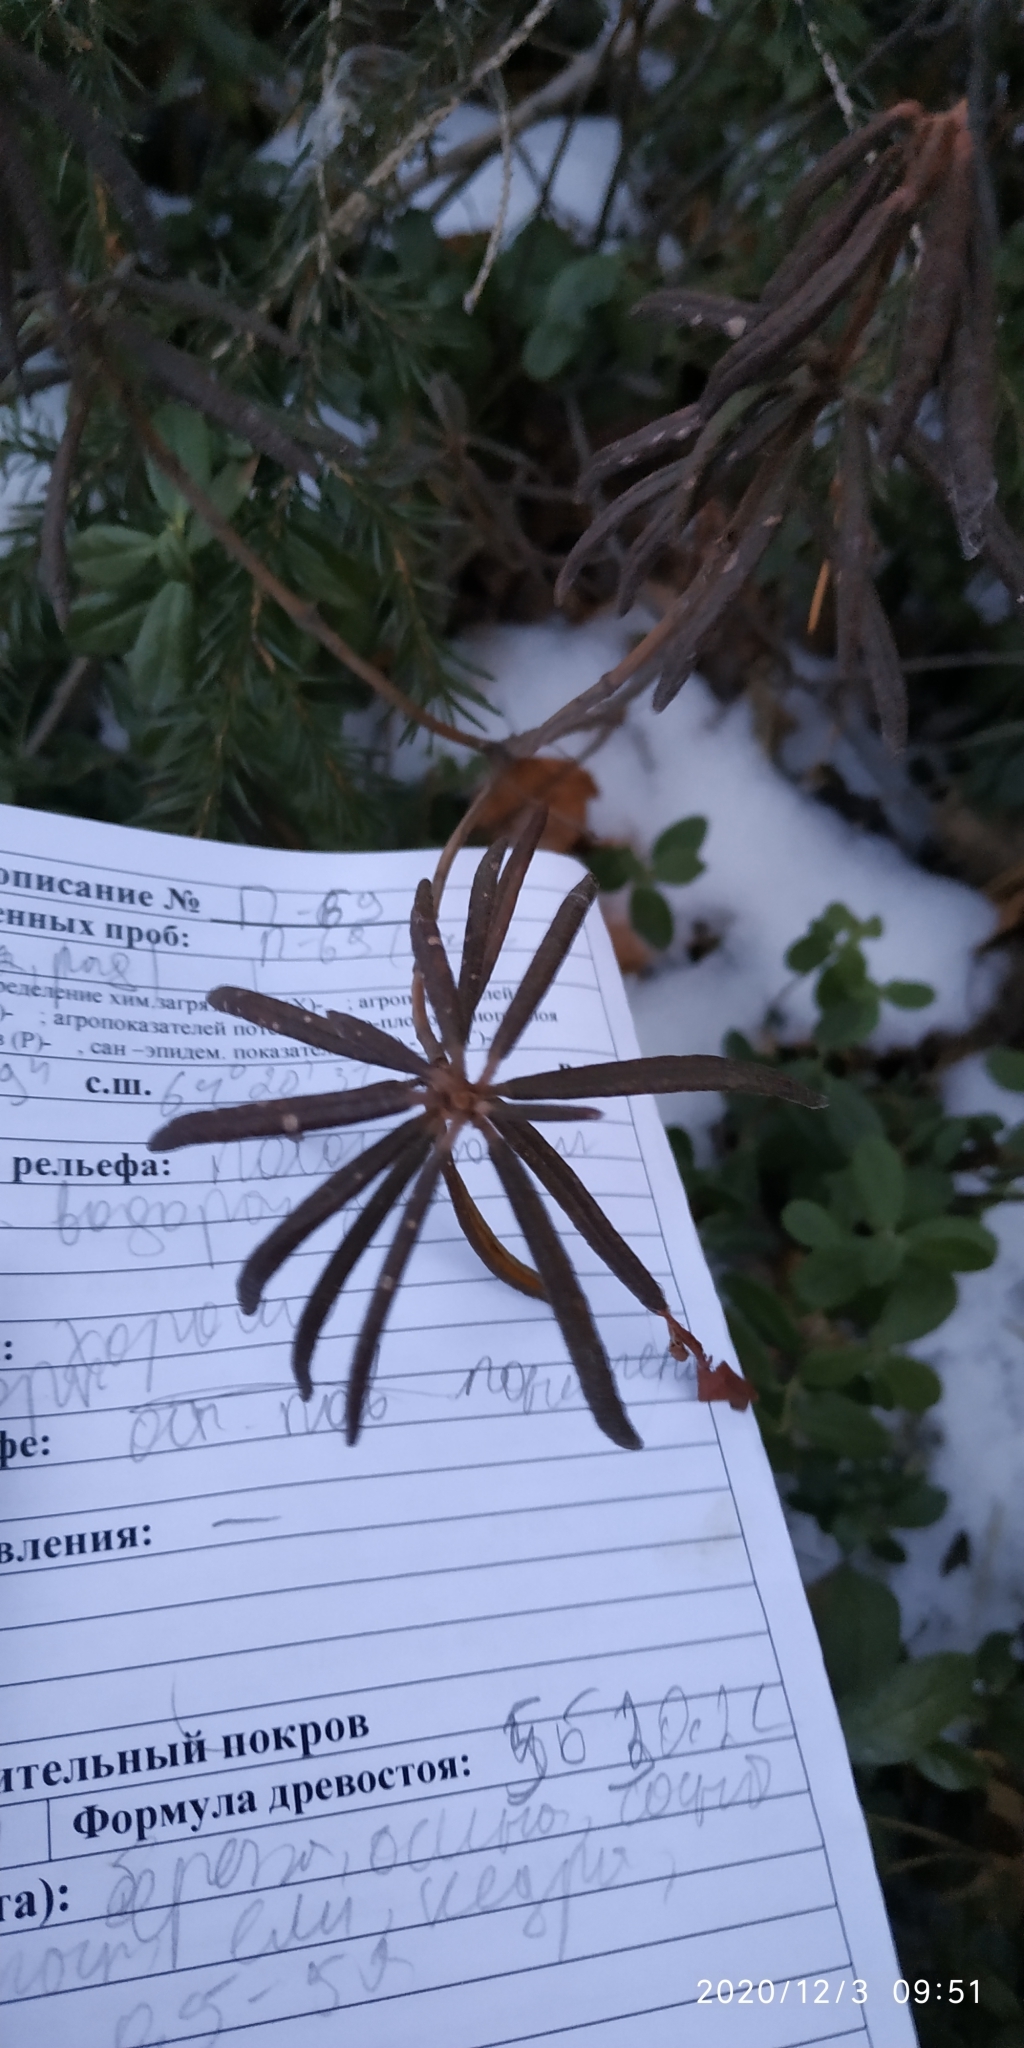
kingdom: Plantae
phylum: Tracheophyta
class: Magnoliopsida
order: Ericales
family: Ericaceae
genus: Rhododendron
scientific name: Rhododendron tomentosum
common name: Marsh labrador tea
